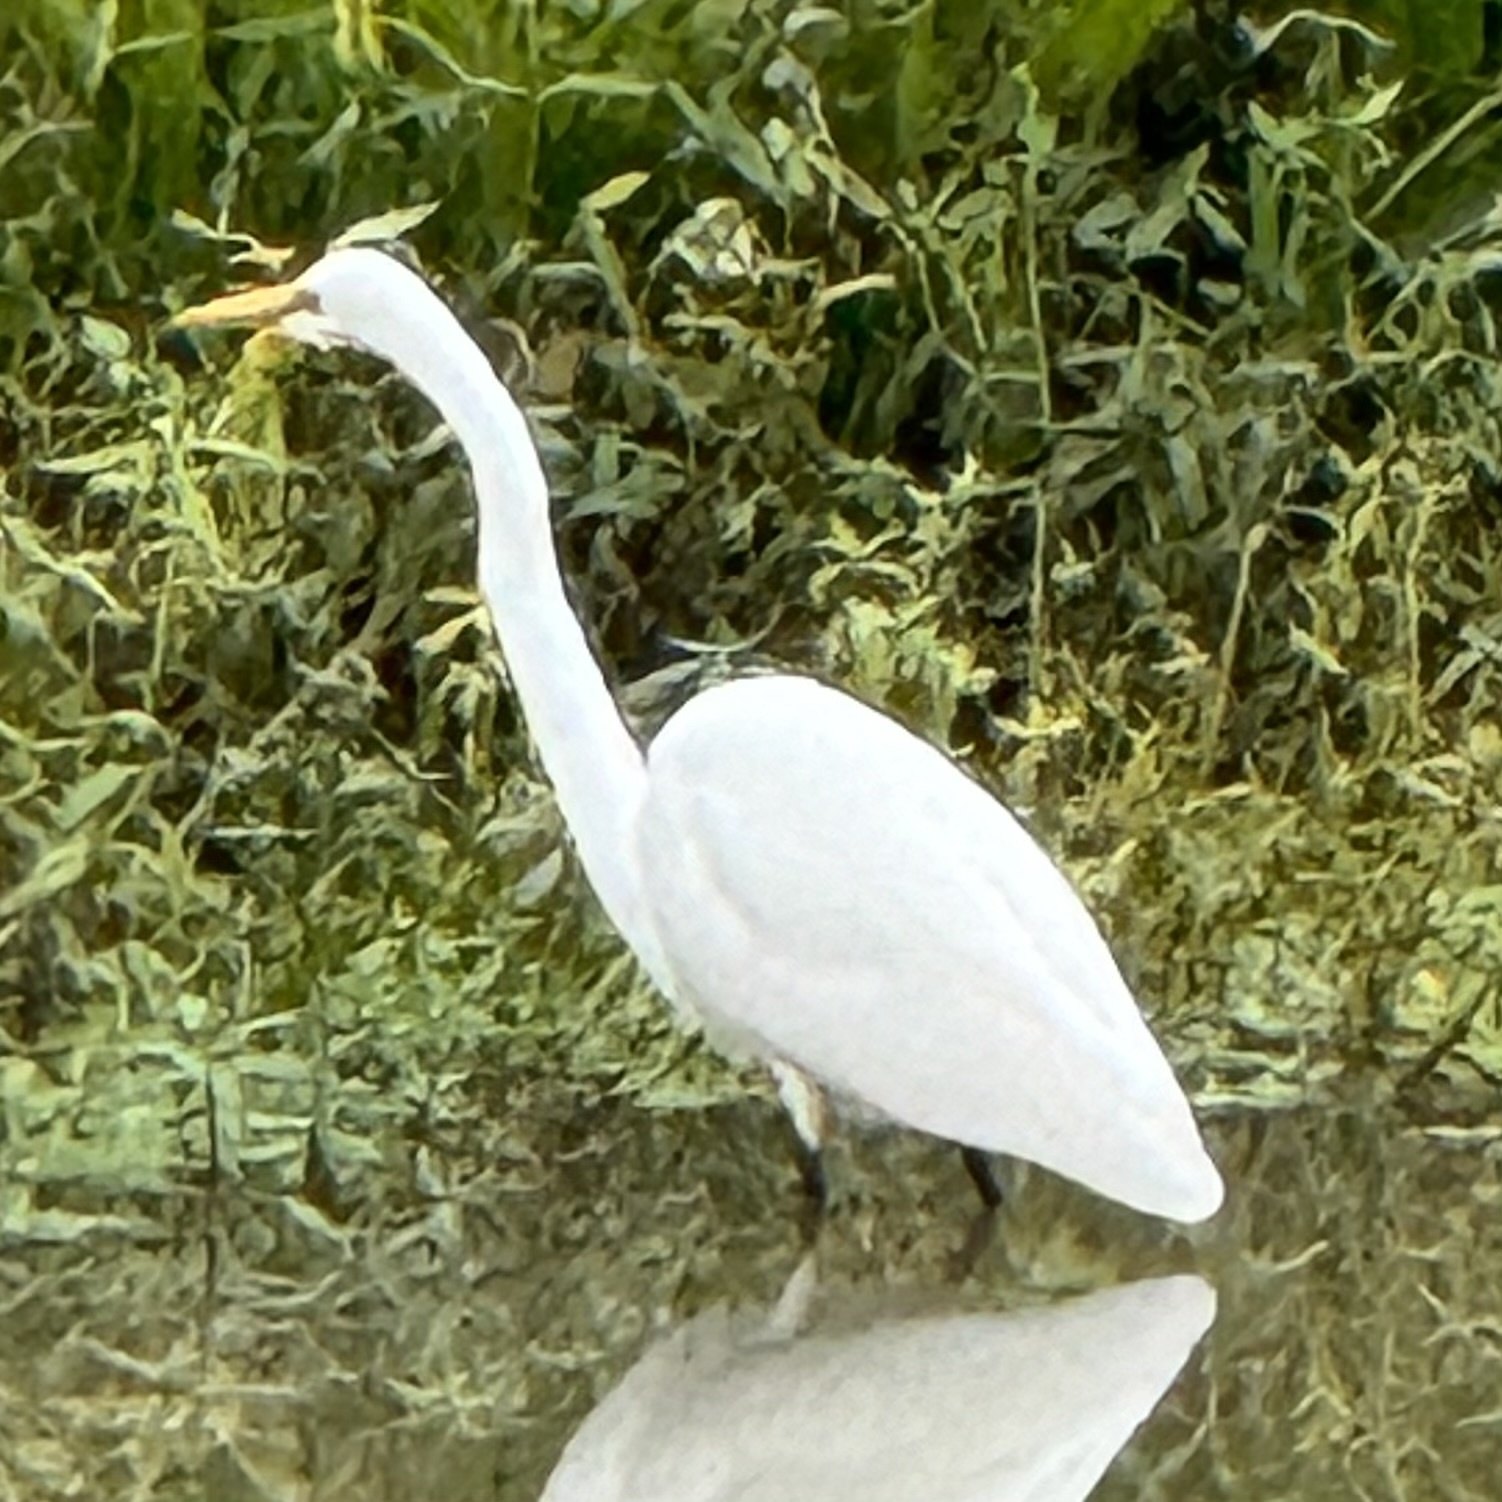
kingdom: Animalia
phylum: Chordata
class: Aves
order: Pelecaniformes
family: Ardeidae
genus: Ardea
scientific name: Ardea alba
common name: Great egret
